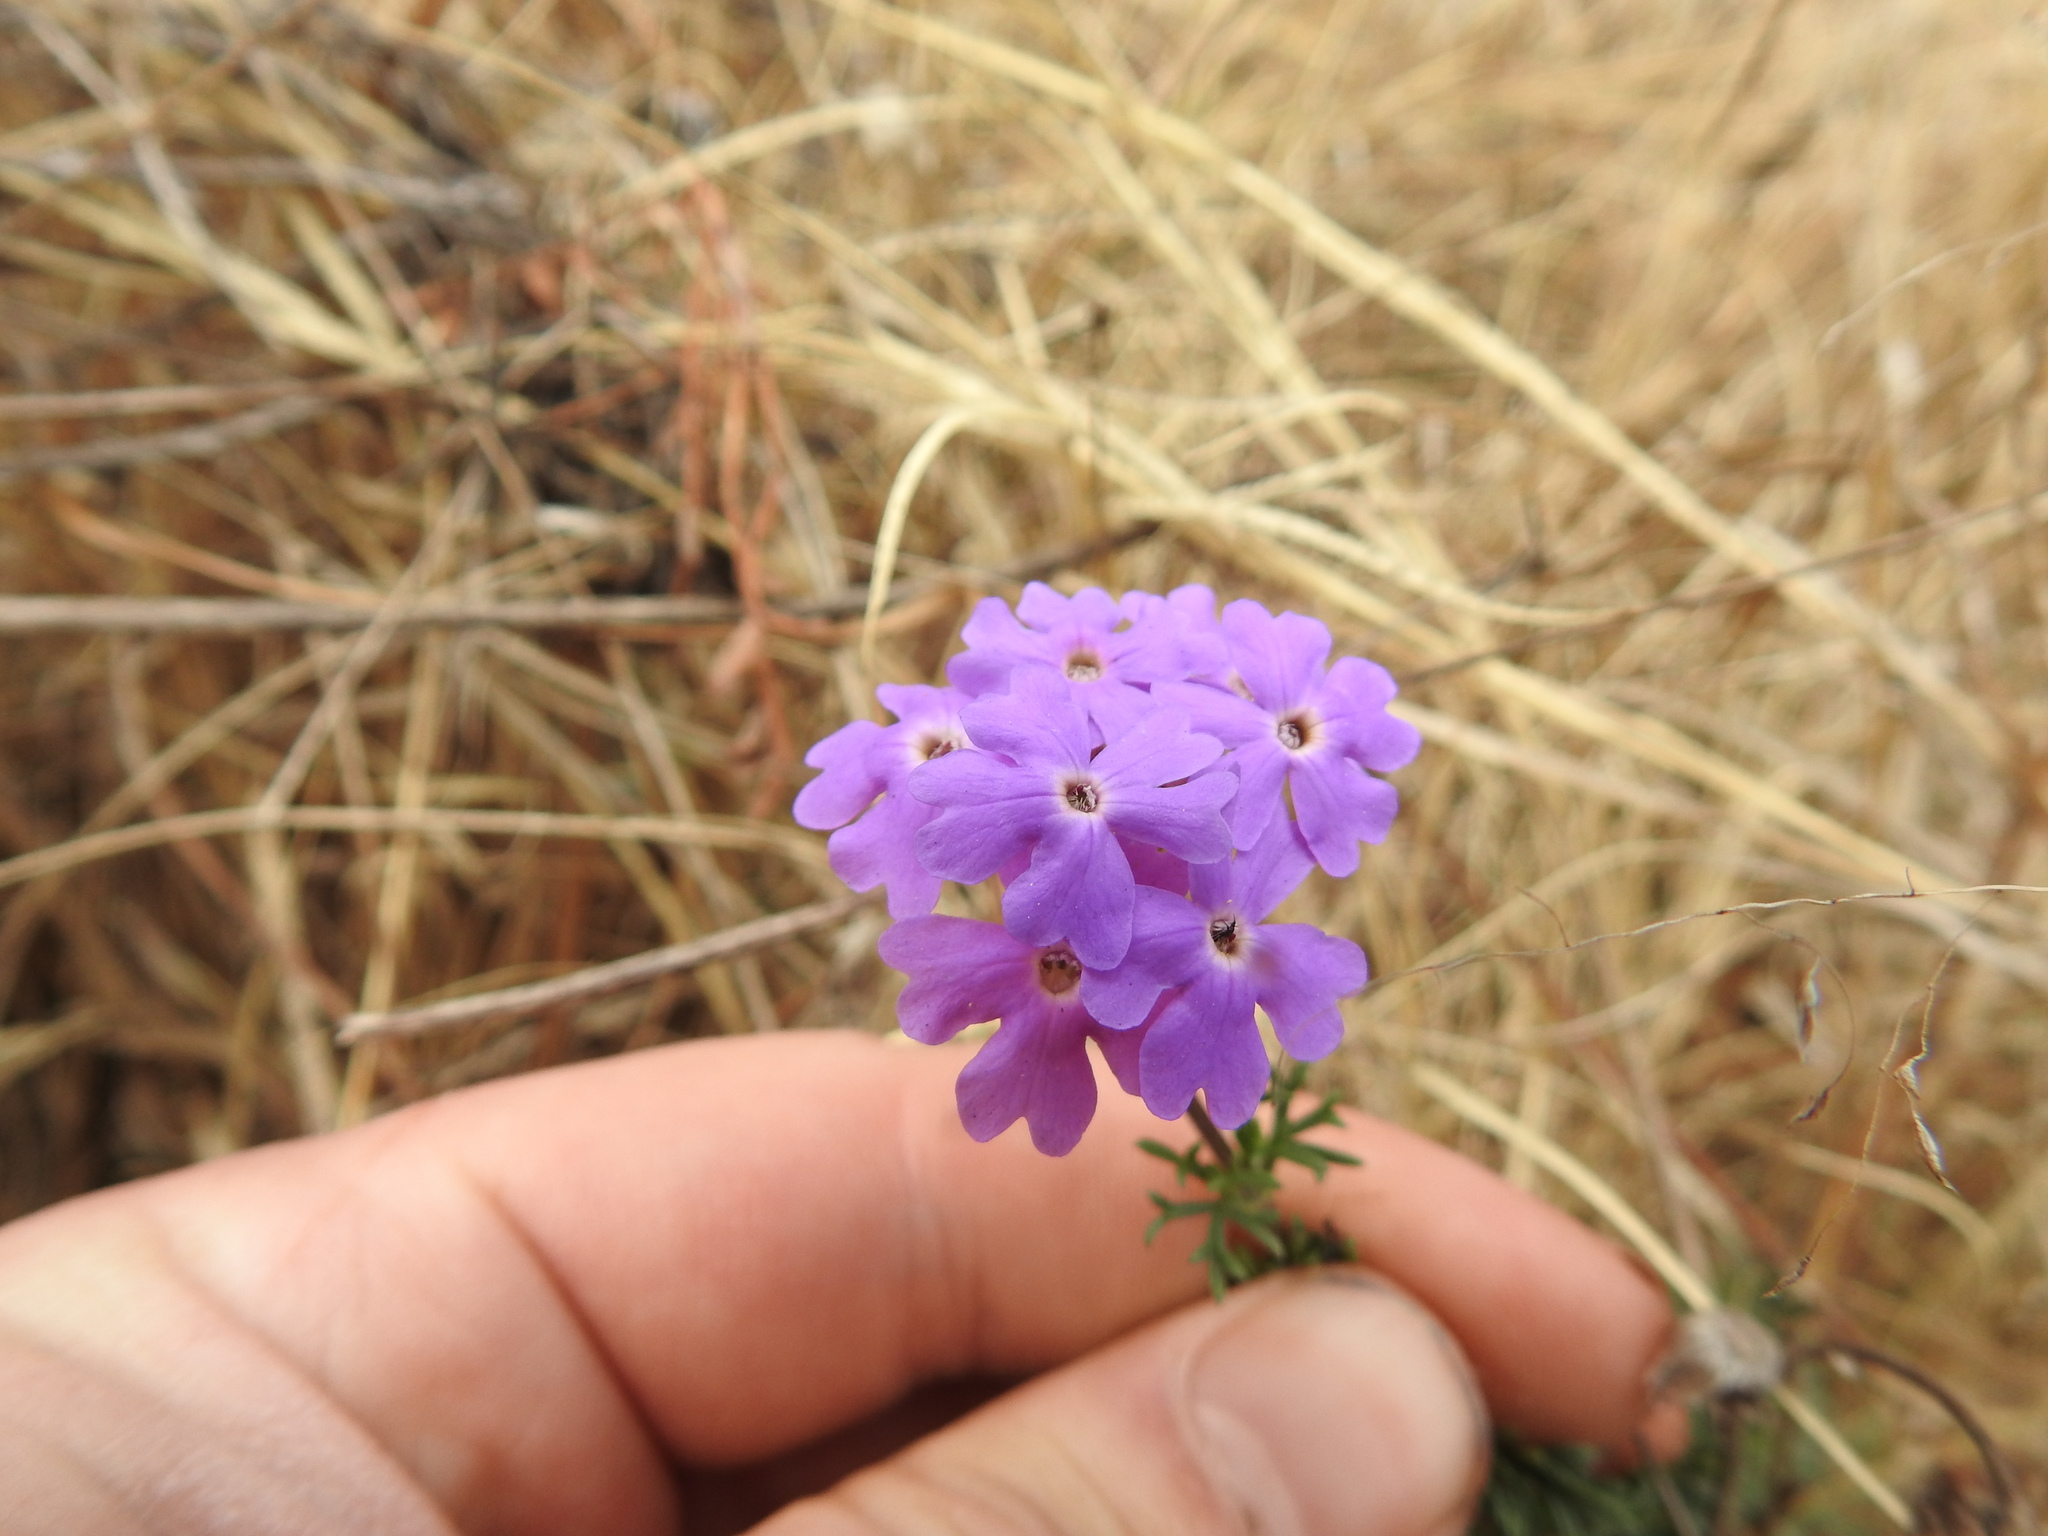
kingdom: Plantae
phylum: Tracheophyta
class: Magnoliopsida
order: Lamiales
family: Verbenaceae
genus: Verbena
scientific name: Verbena aristigera
